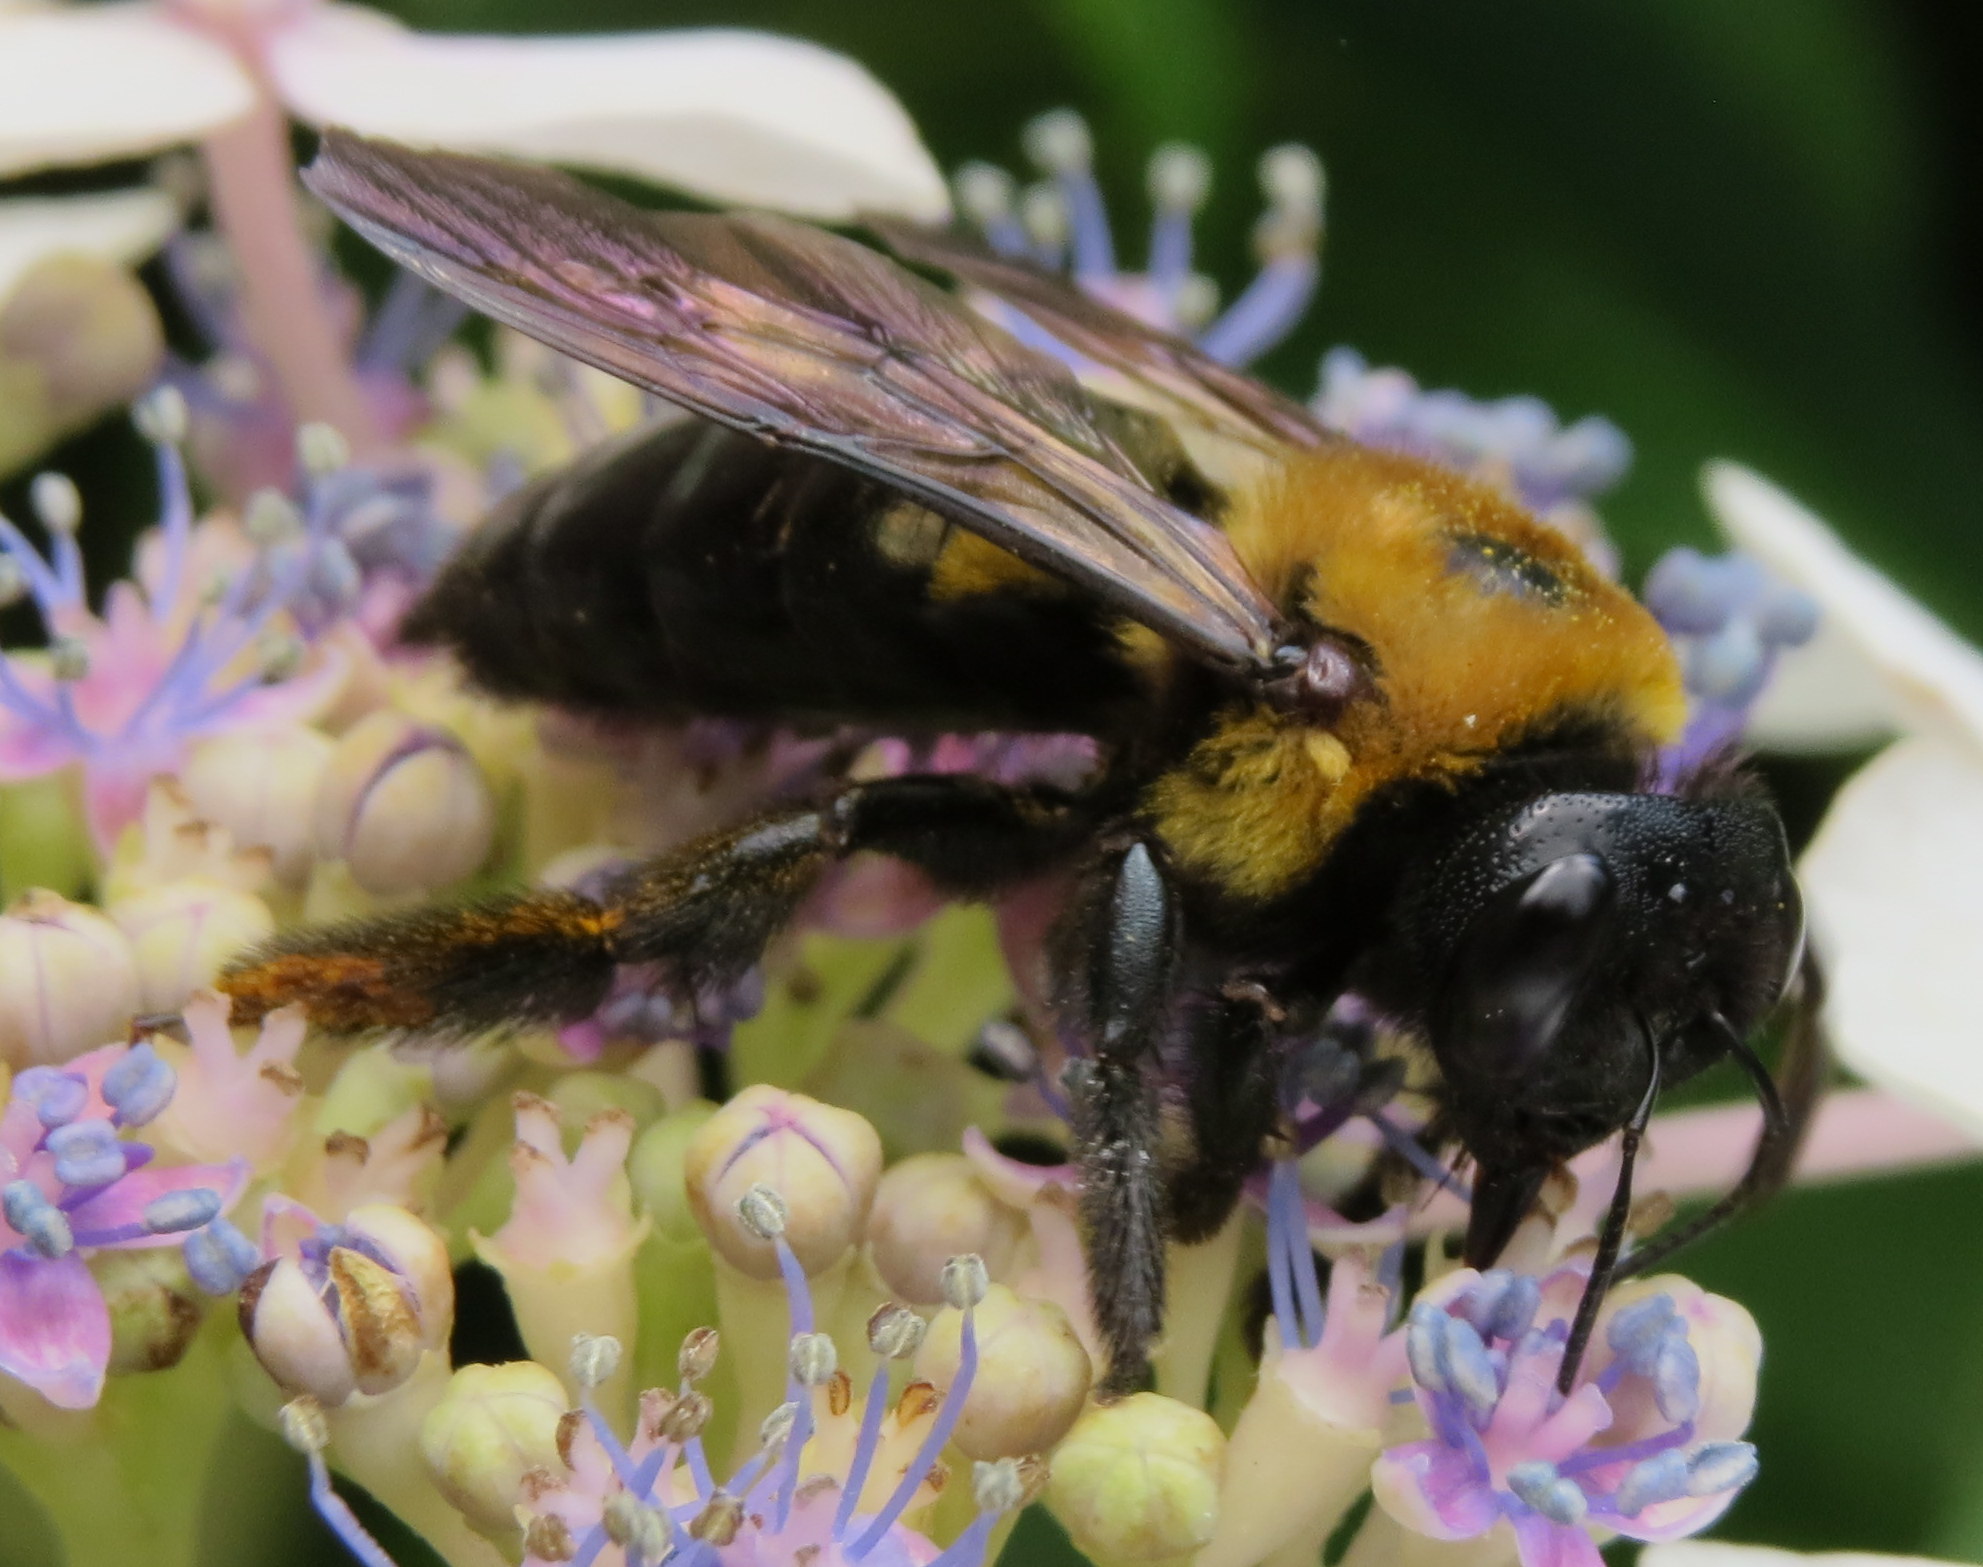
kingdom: Animalia
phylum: Arthropoda
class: Insecta
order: Hymenoptera
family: Apidae
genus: Xylocopa
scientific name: Xylocopa virginica
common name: Carpenter bee
